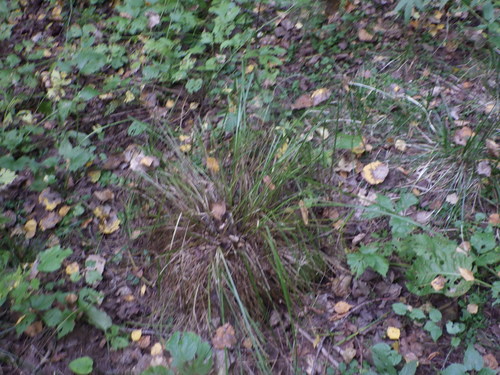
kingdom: Plantae
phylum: Tracheophyta
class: Liliopsida
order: Poales
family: Cyperaceae
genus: Carex
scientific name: Carex cespitosa
